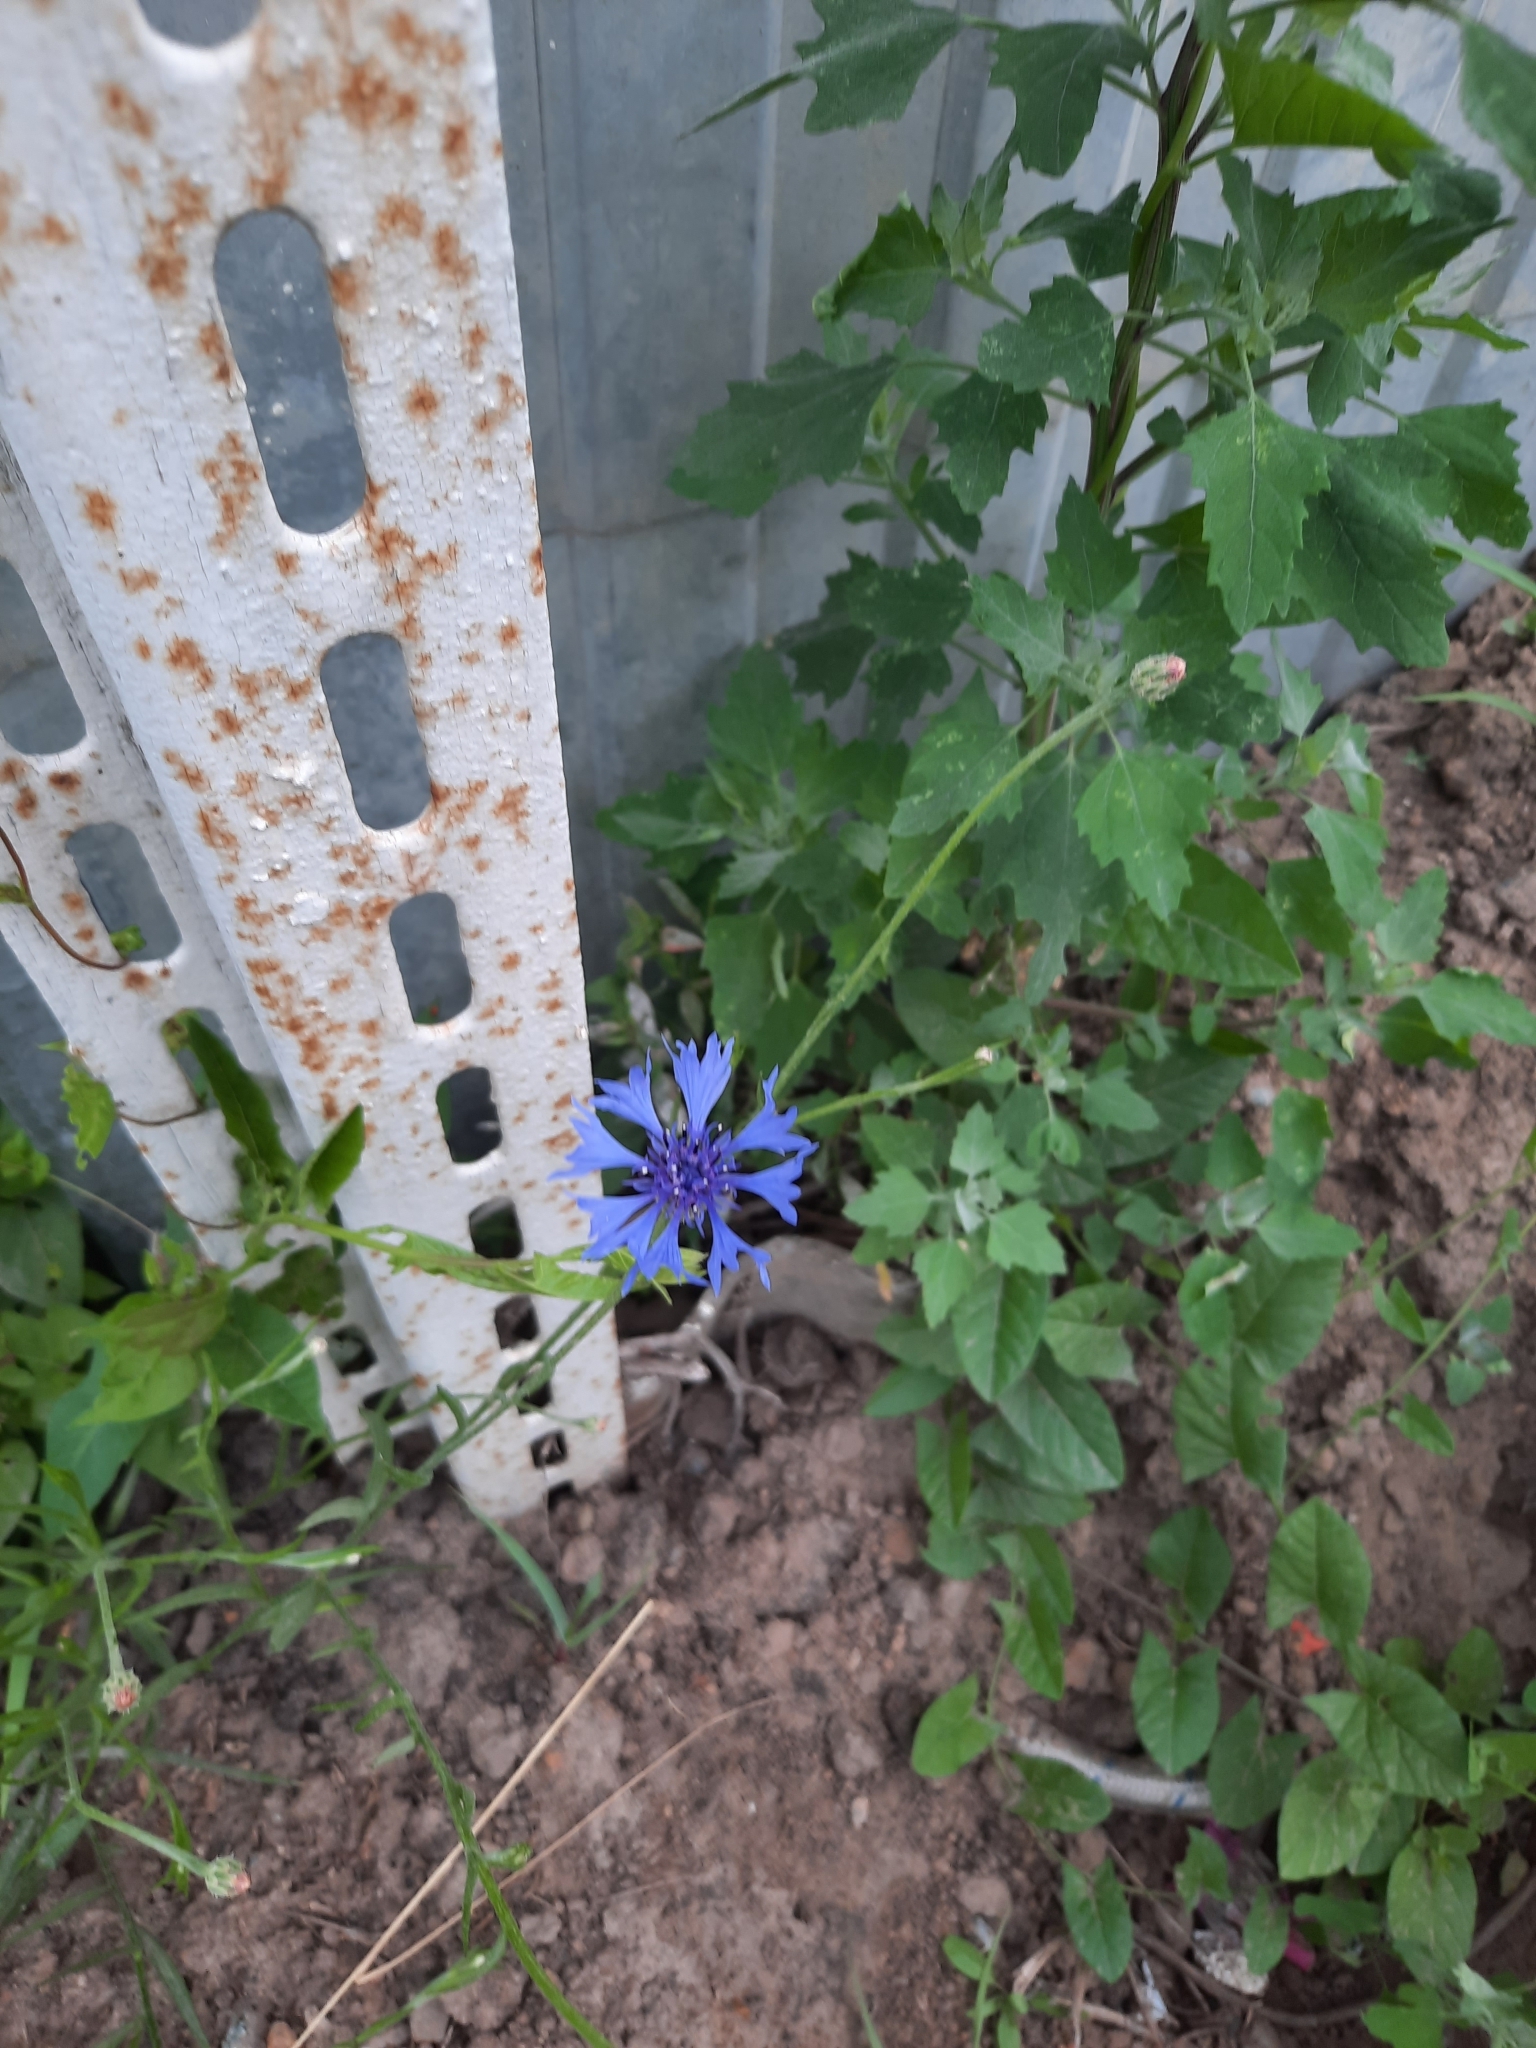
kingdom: Plantae
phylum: Tracheophyta
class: Magnoliopsida
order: Asterales
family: Asteraceae
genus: Centaurea
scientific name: Centaurea cyanus
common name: Cornflower
